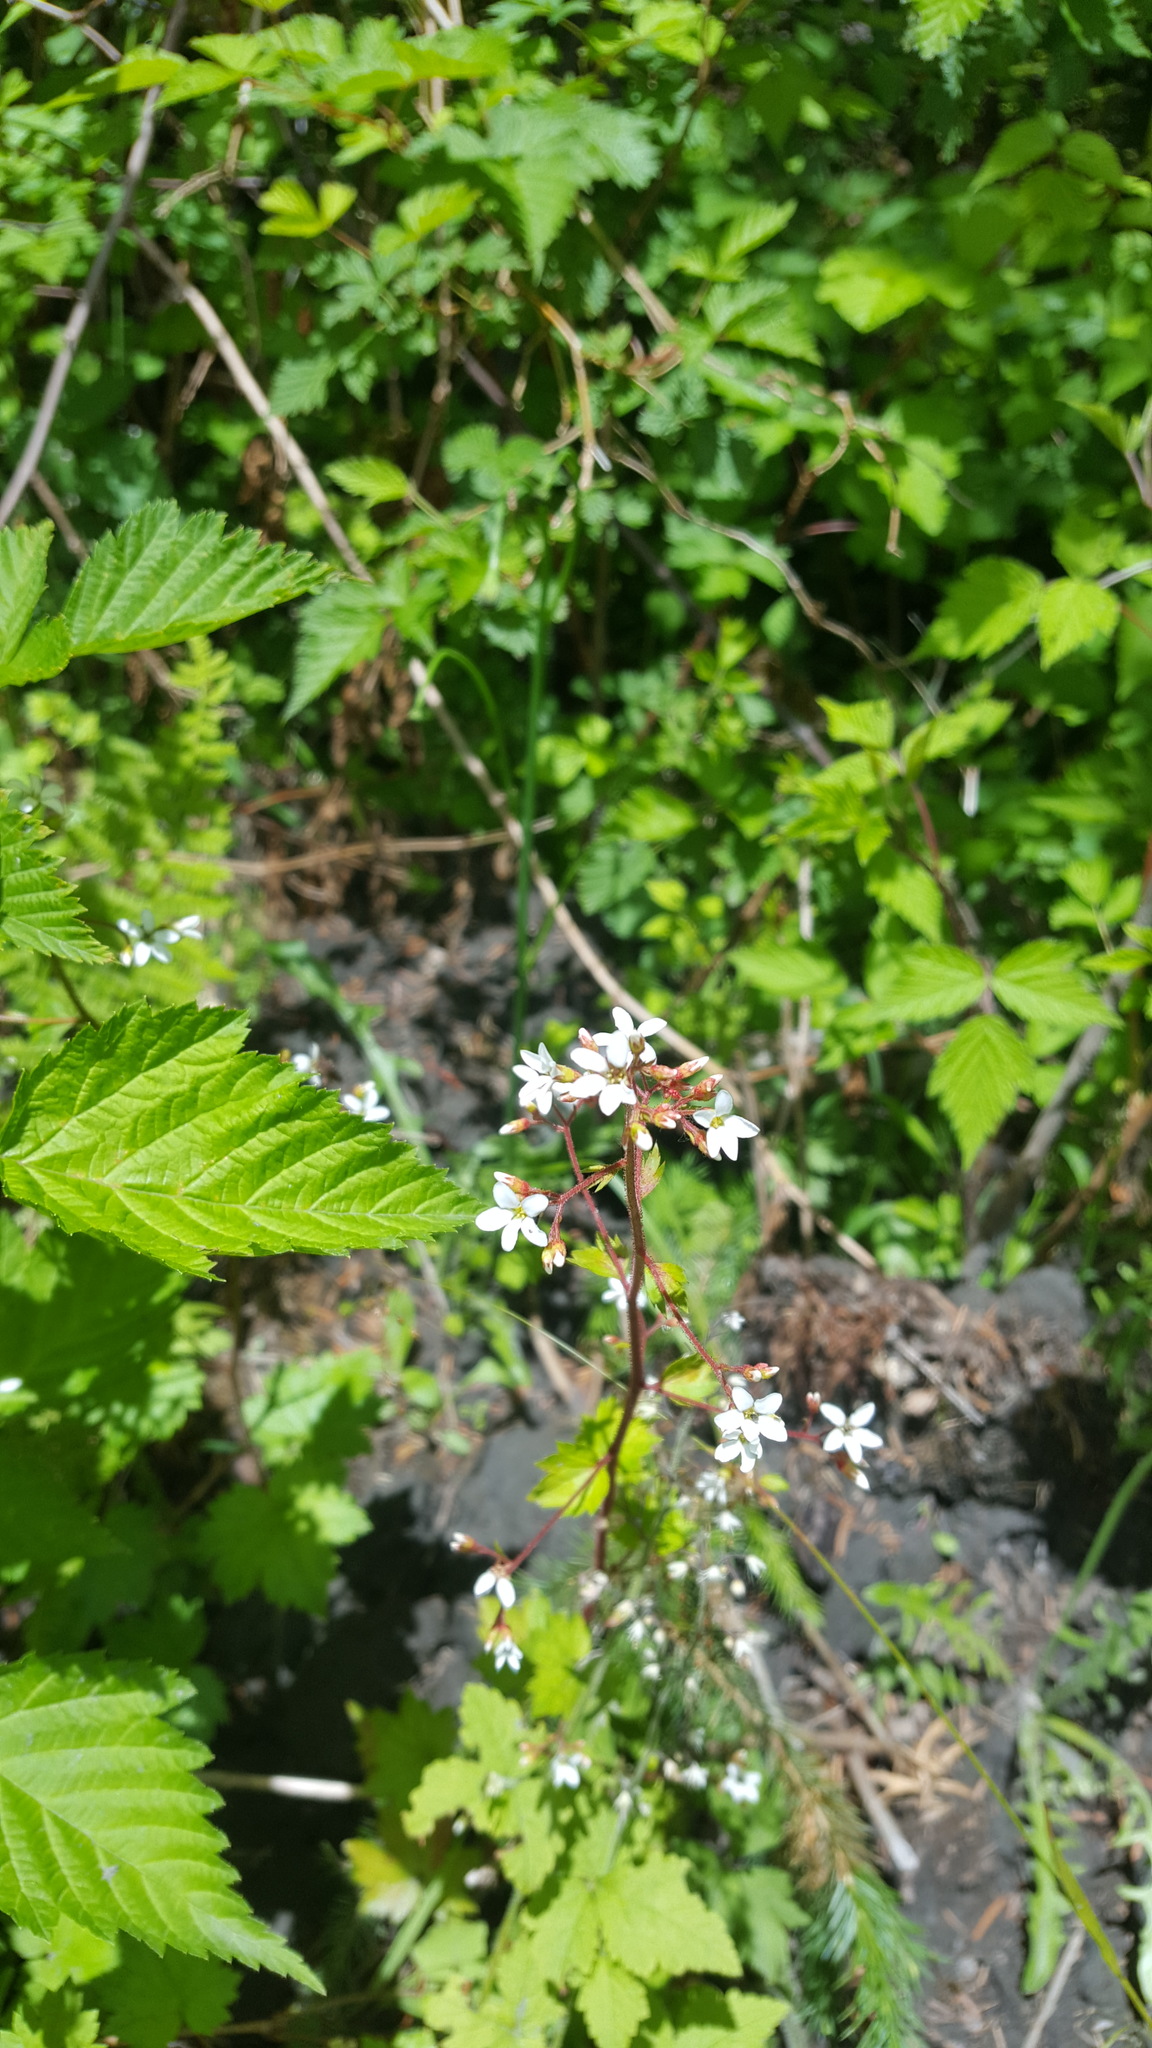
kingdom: Plantae
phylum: Tracheophyta
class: Magnoliopsida
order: Saxifragales
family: Saxifragaceae
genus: Boykinia
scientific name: Boykinia occidentalis
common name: Coast boykinia
